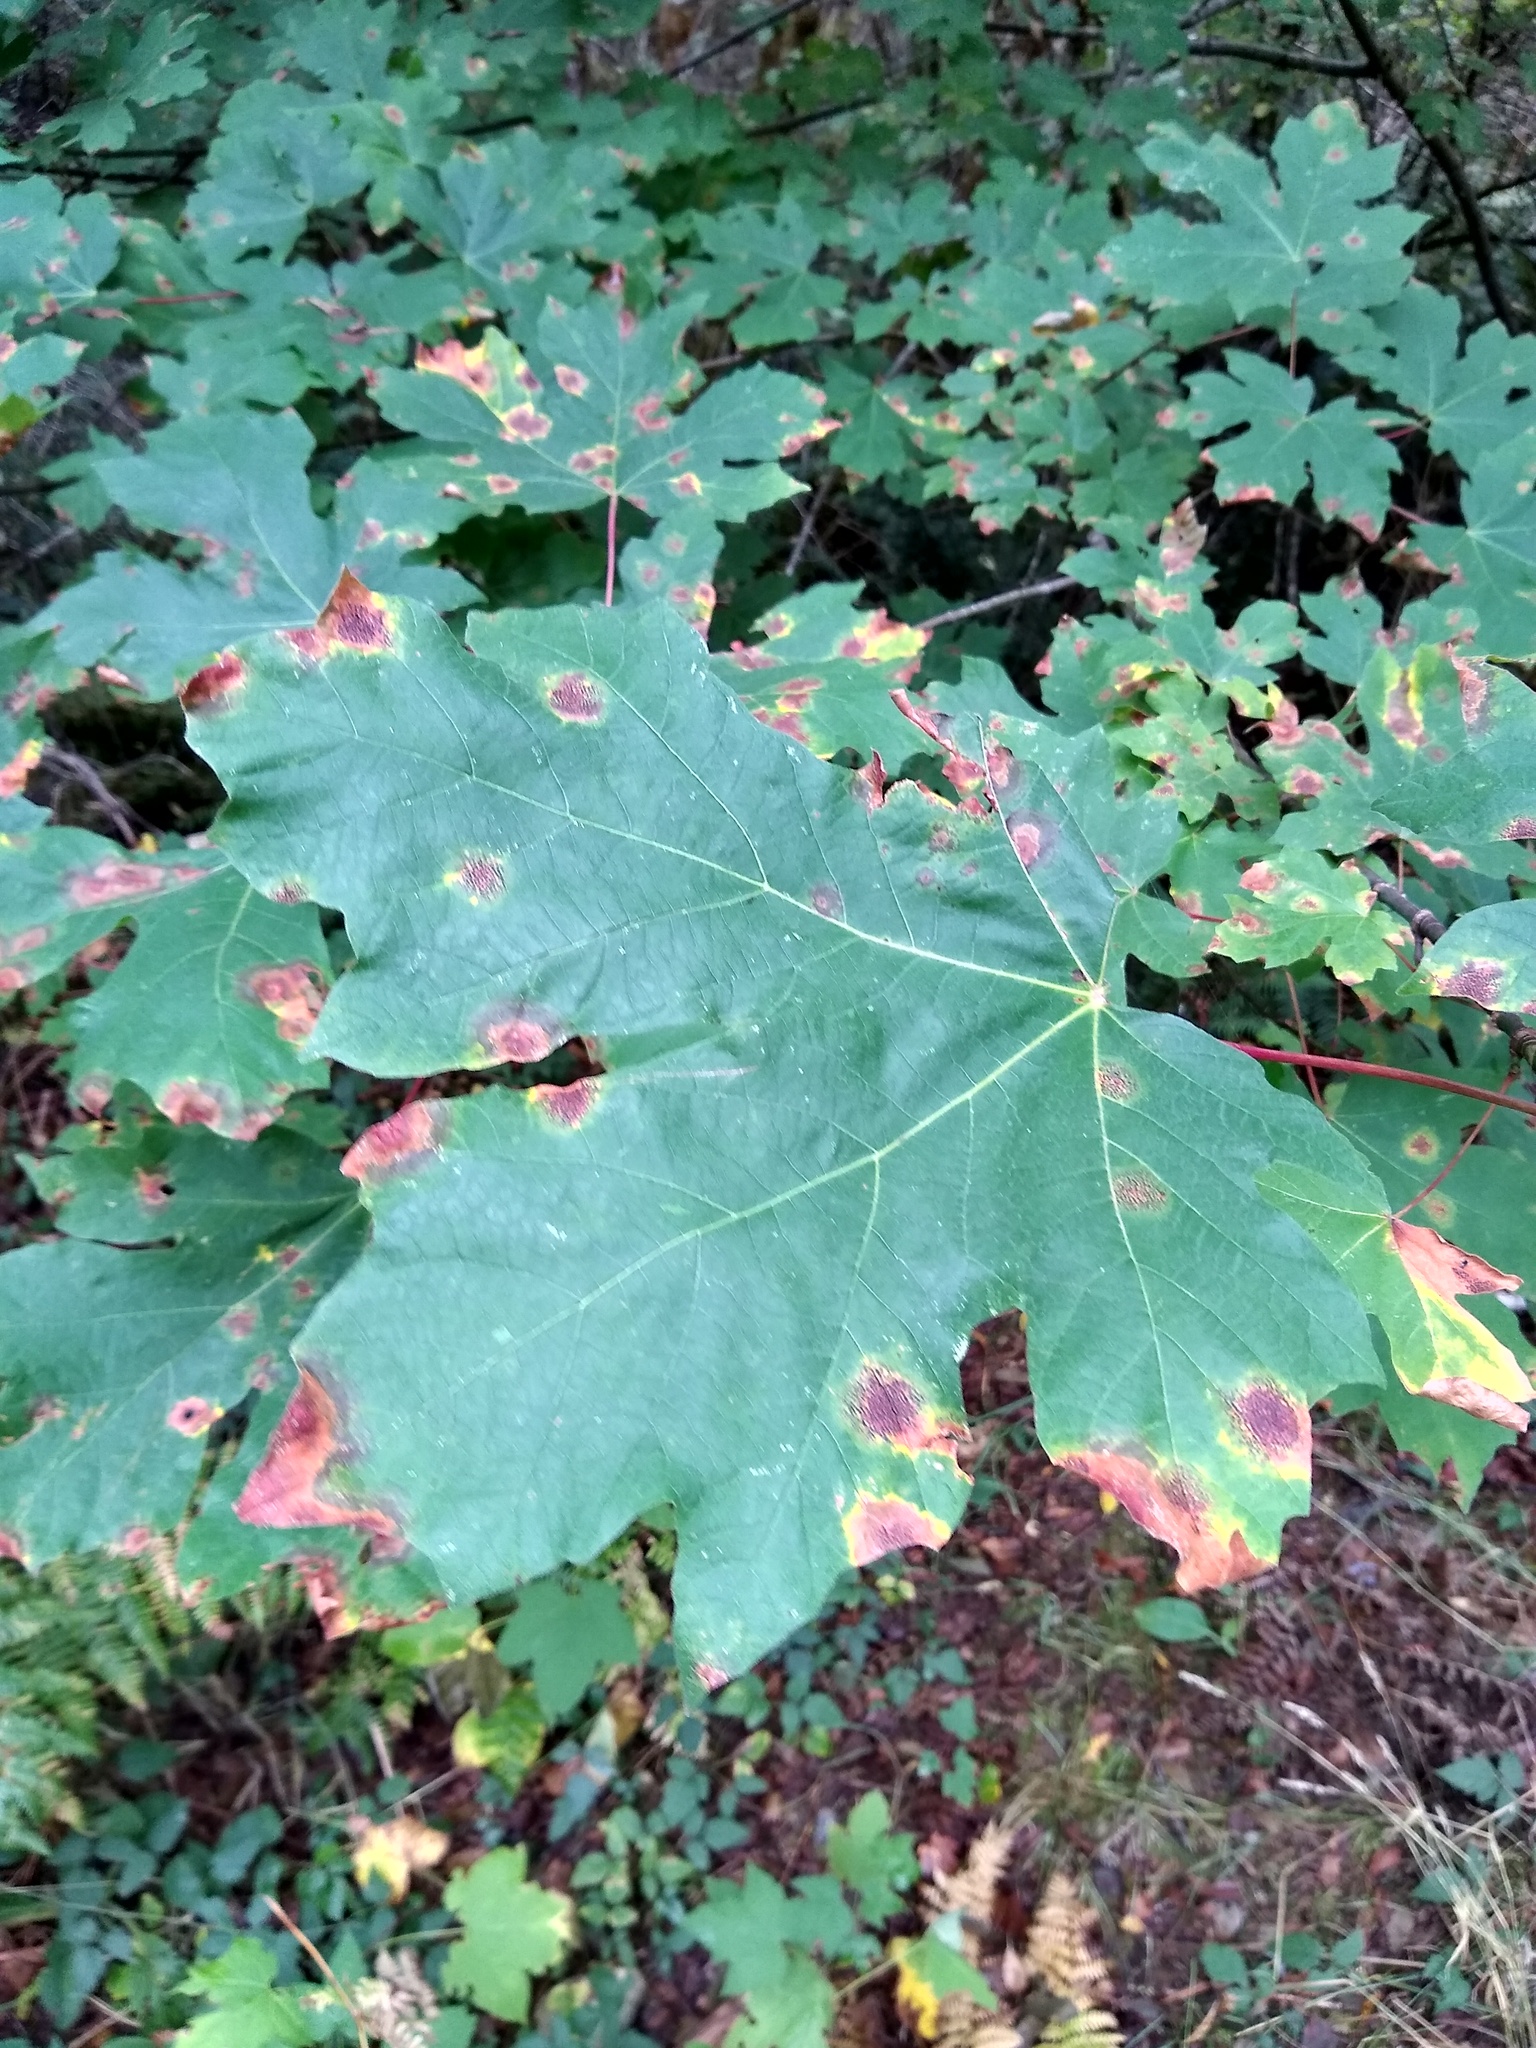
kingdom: Fungi
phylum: Ascomycota
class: Leotiomycetes
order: Rhytismatales
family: Rhytismataceae
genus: Rhytisma
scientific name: Rhytisma punctatum
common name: Speckled tar spot
